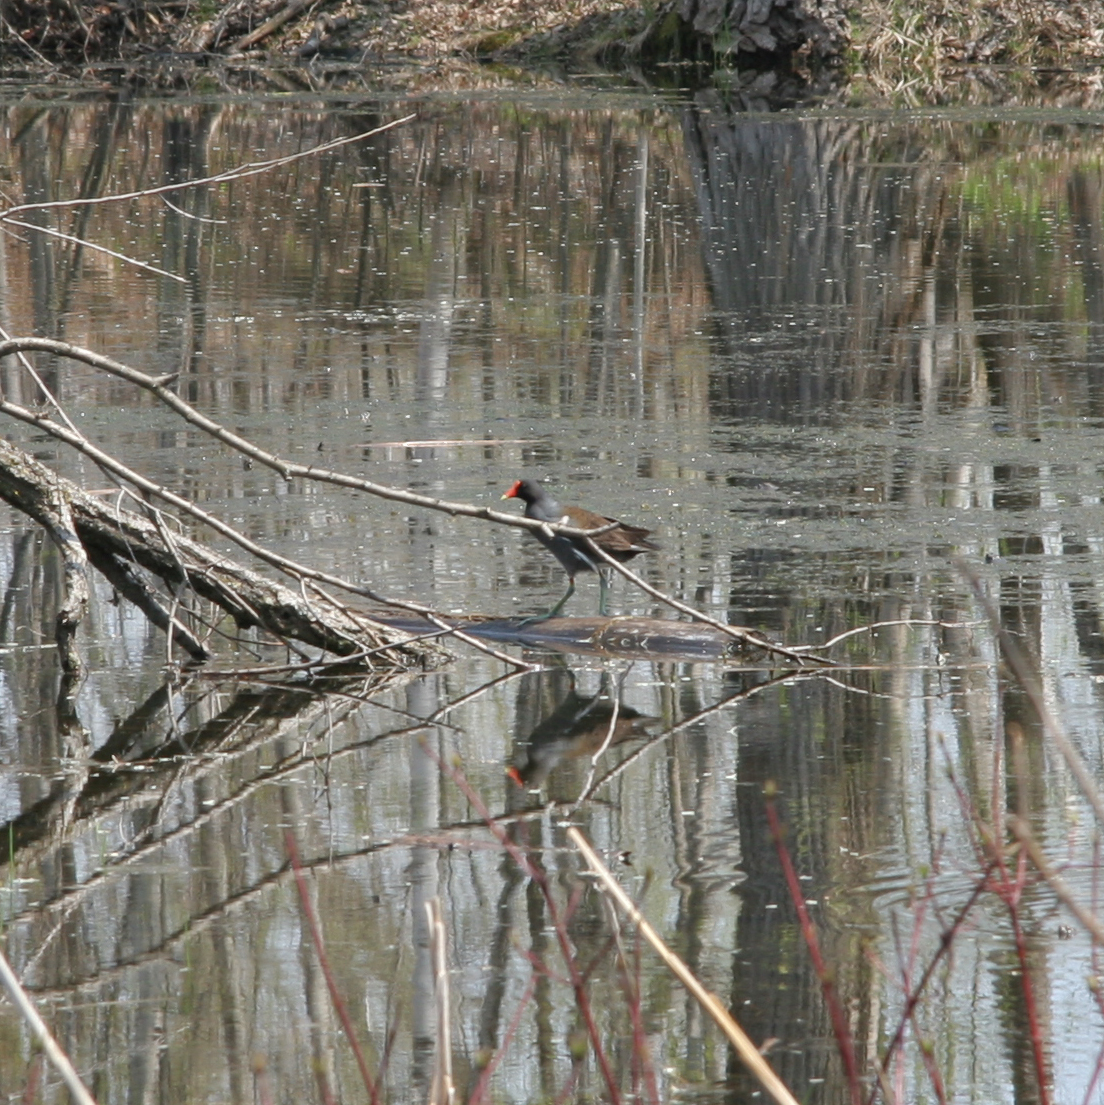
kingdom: Animalia
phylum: Chordata
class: Aves
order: Gruiformes
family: Rallidae
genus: Gallinula
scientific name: Gallinula chloropus
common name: Common moorhen
